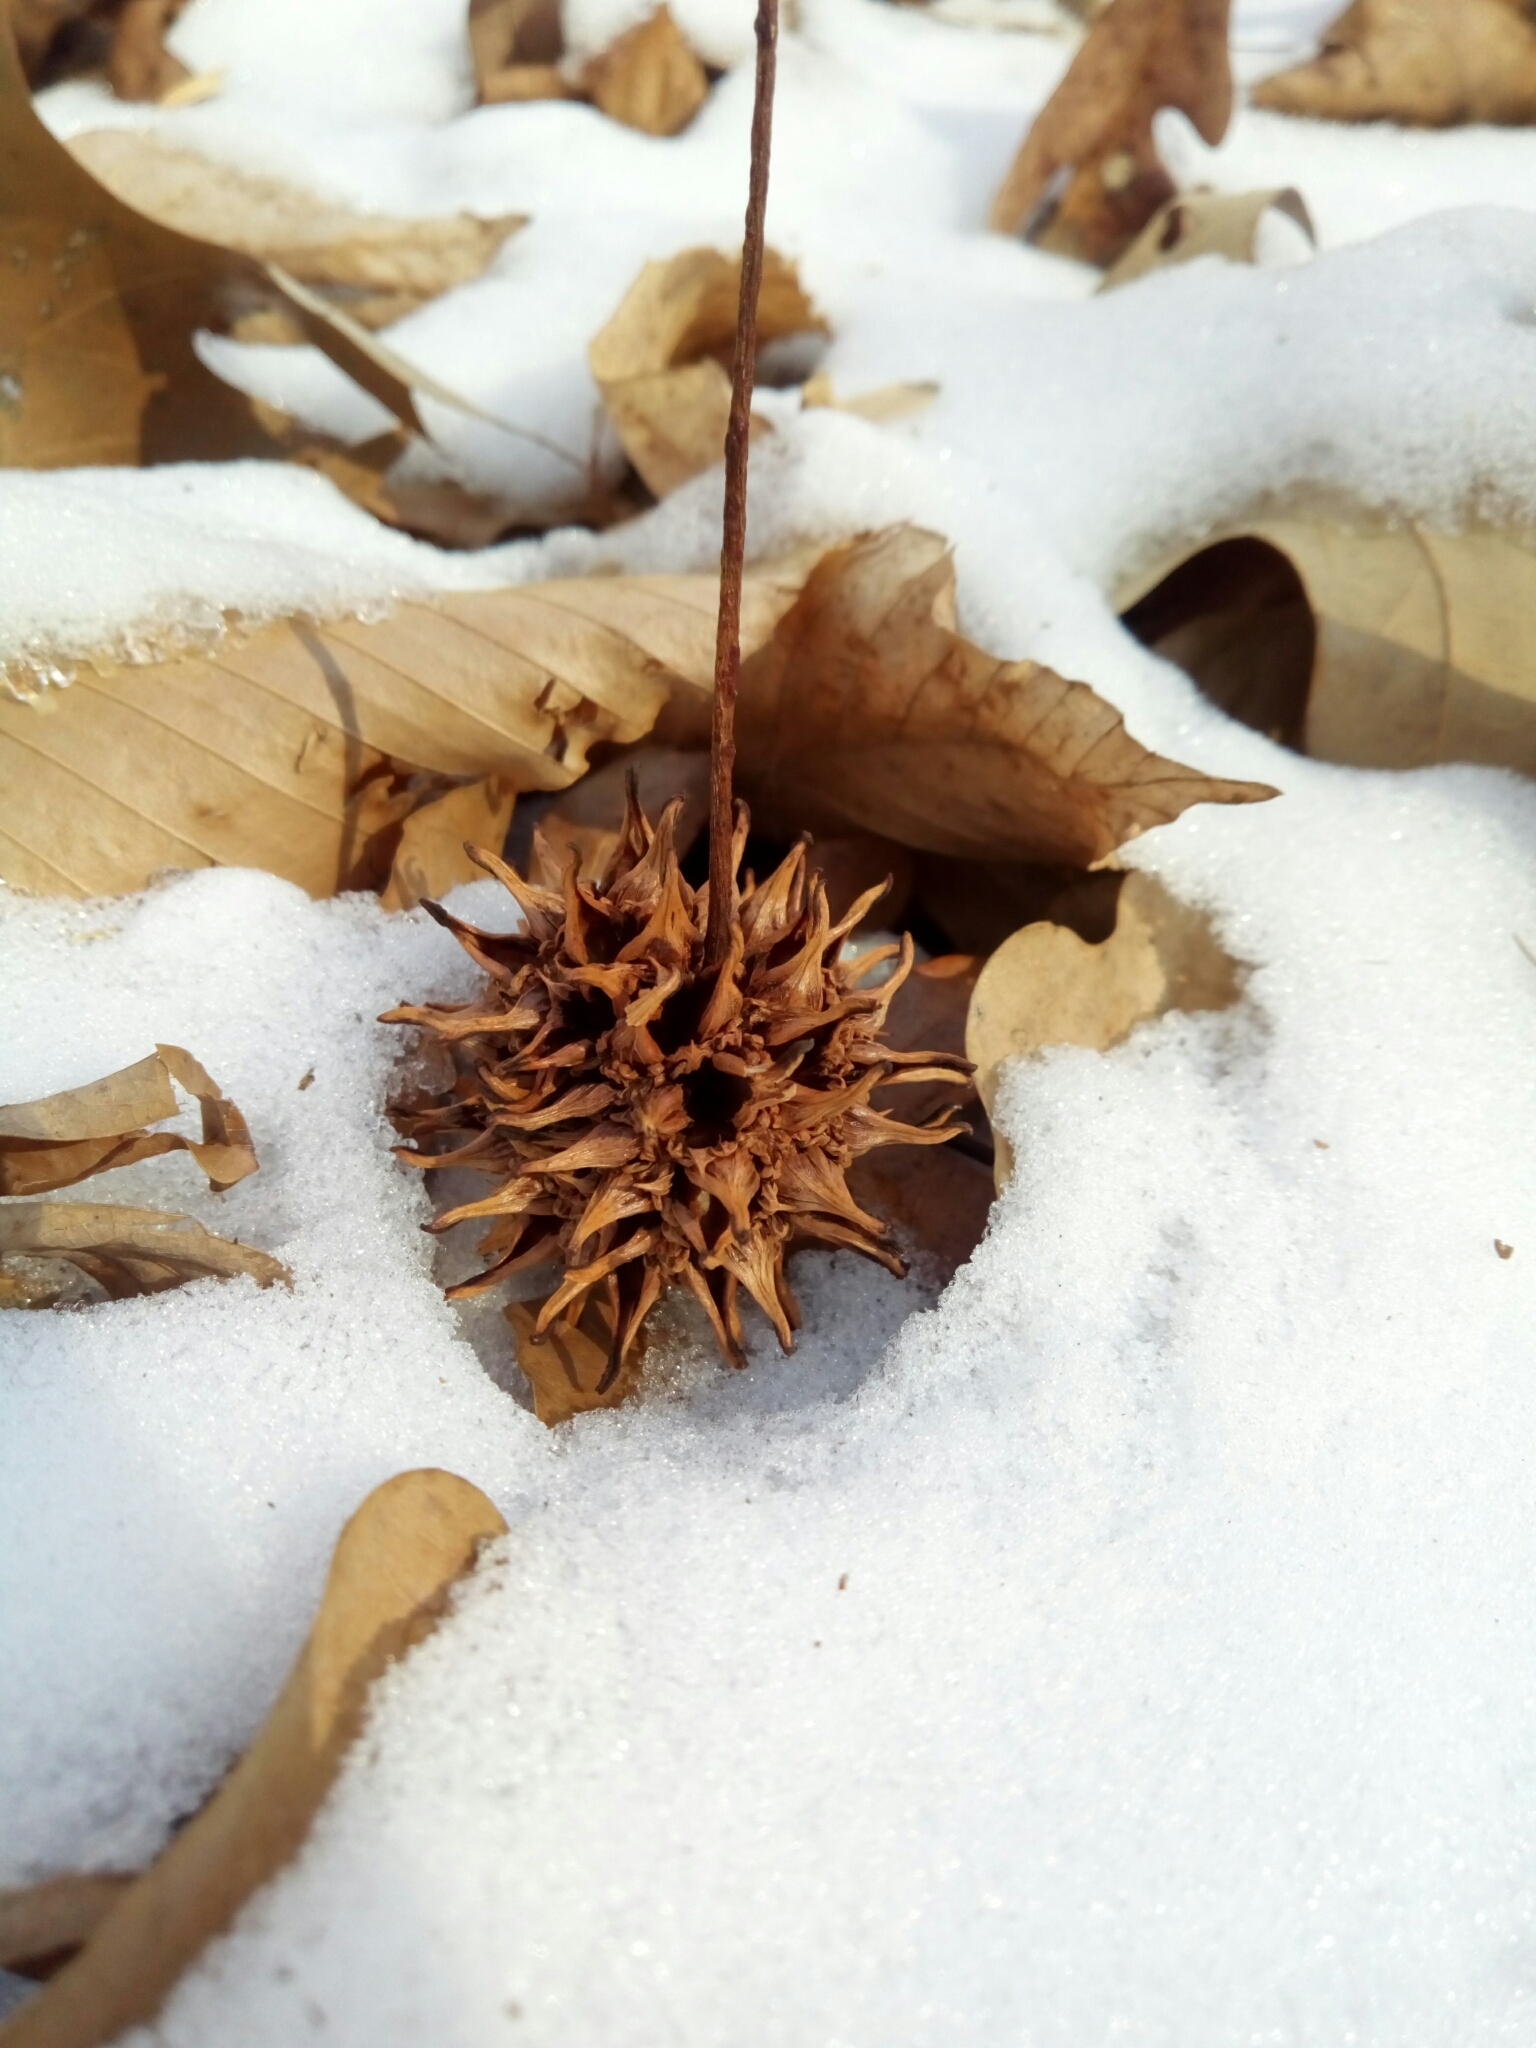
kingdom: Plantae
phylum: Tracheophyta
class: Magnoliopsida
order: Saxifragales
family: Altingiaceae
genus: Liquidambar
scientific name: Liquidambar styraciflua
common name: Sweet gum
